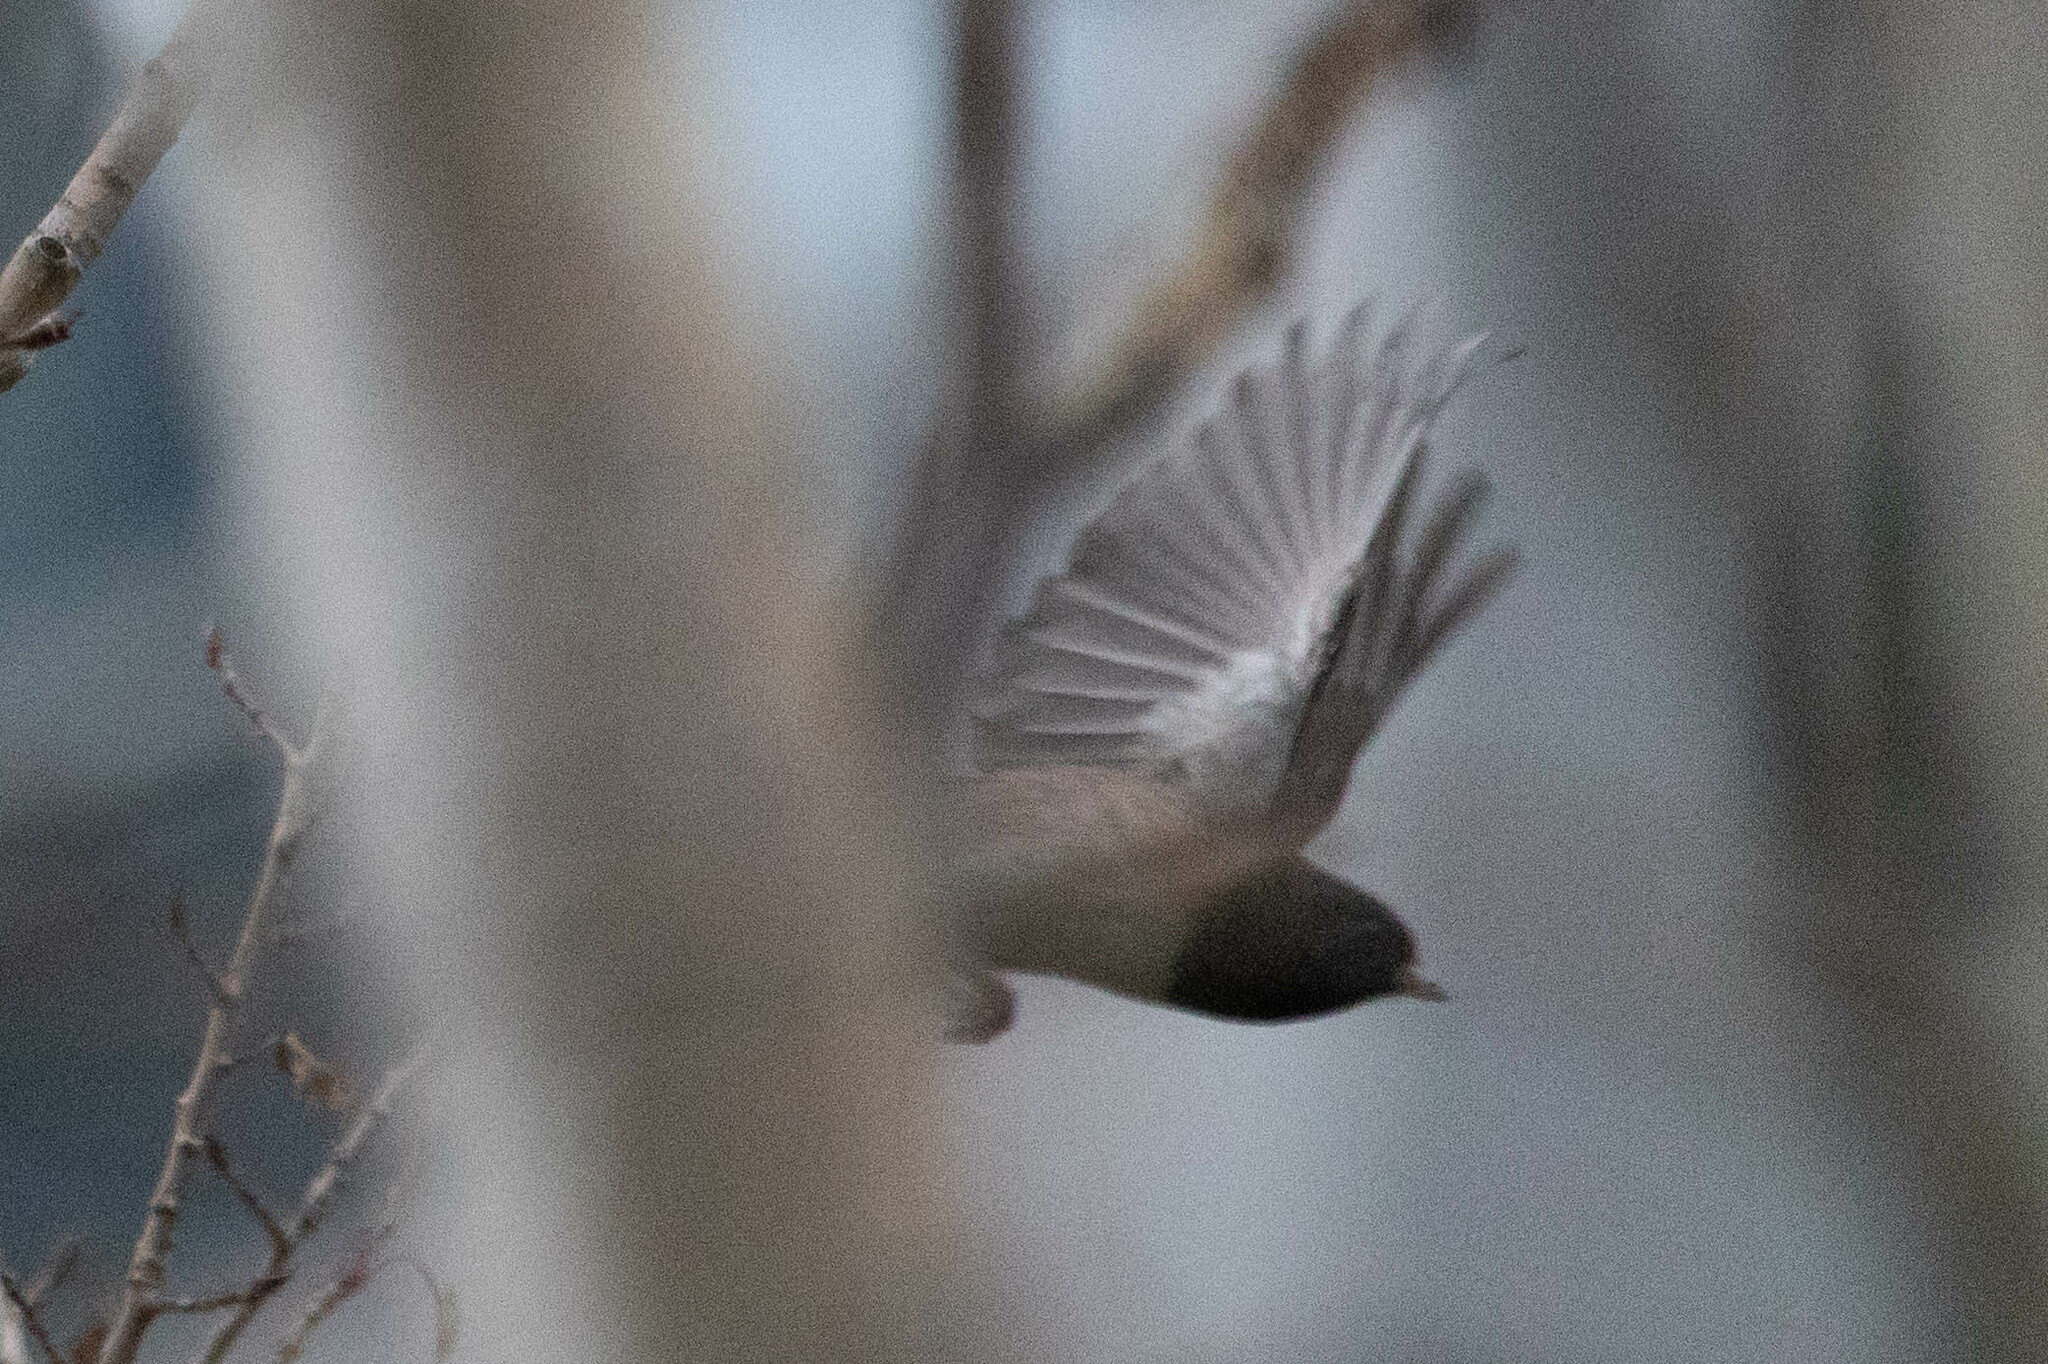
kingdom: Animalia
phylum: Chordata
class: Aves
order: Passeriformes
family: Passerellidae
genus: Junco
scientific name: Junco hyemalis
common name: Dark-eyed junco
